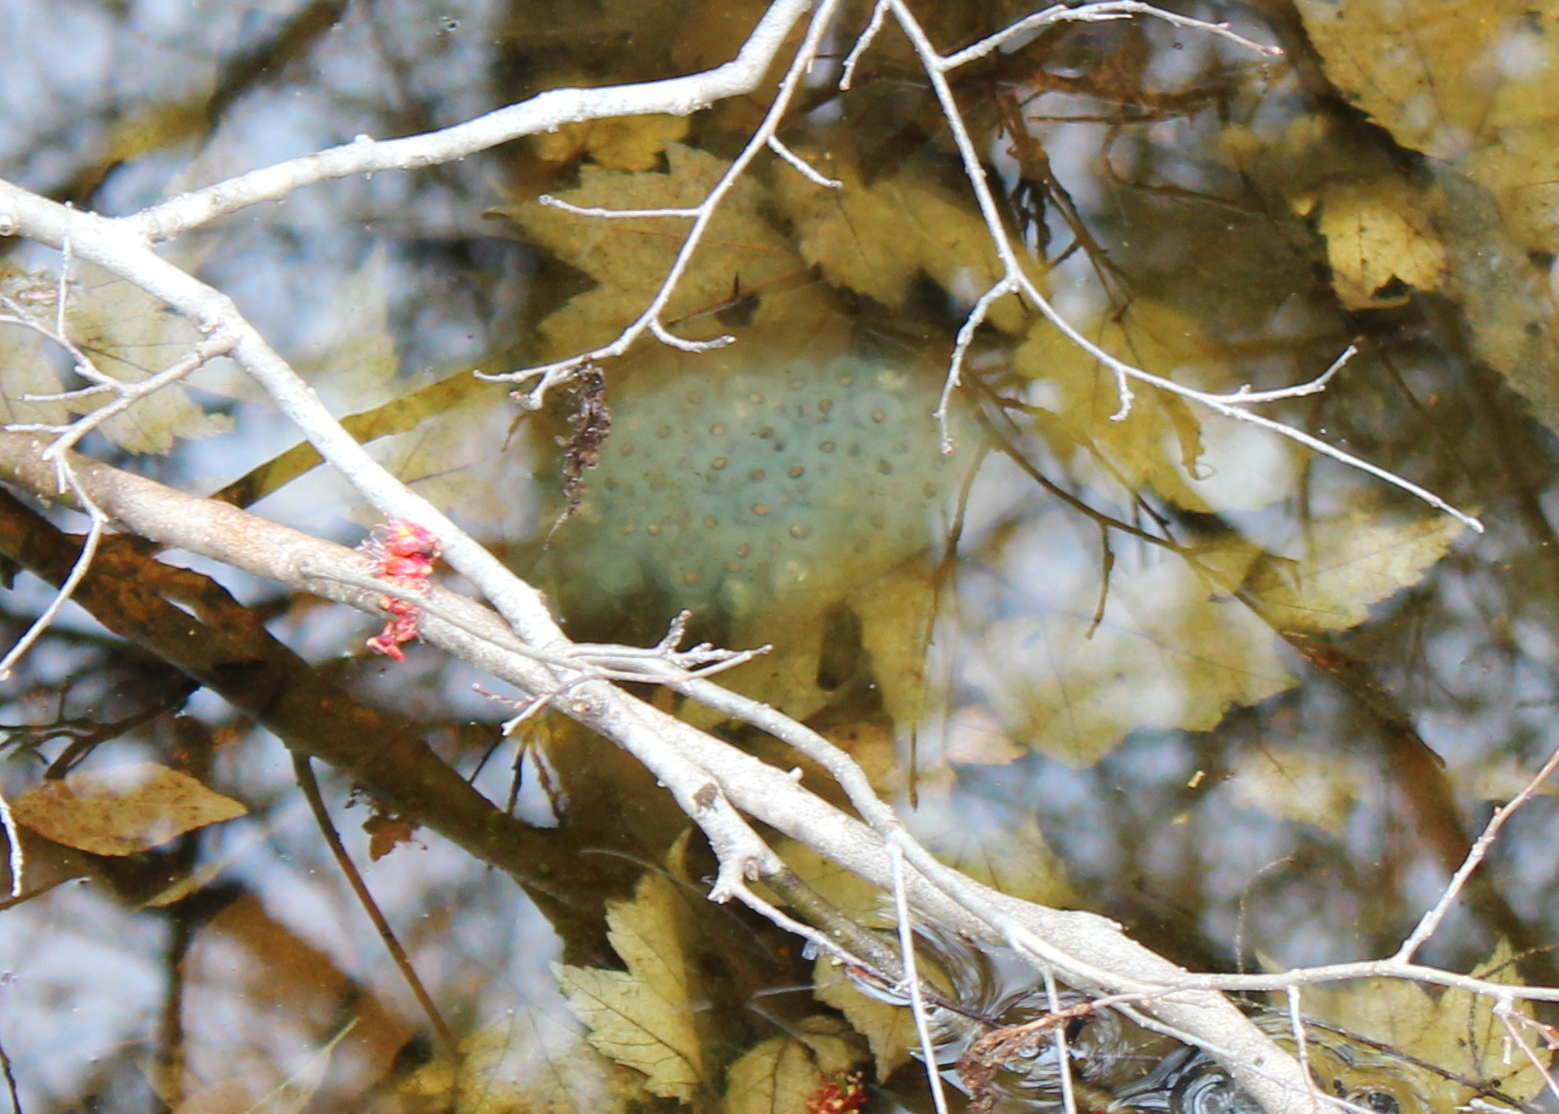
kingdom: Animalia
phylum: Chordata
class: Amphibia
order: Caudata
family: Ambystomatidae
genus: Ambystoma
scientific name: Ambystoma maculatum
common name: Spotted salamander
